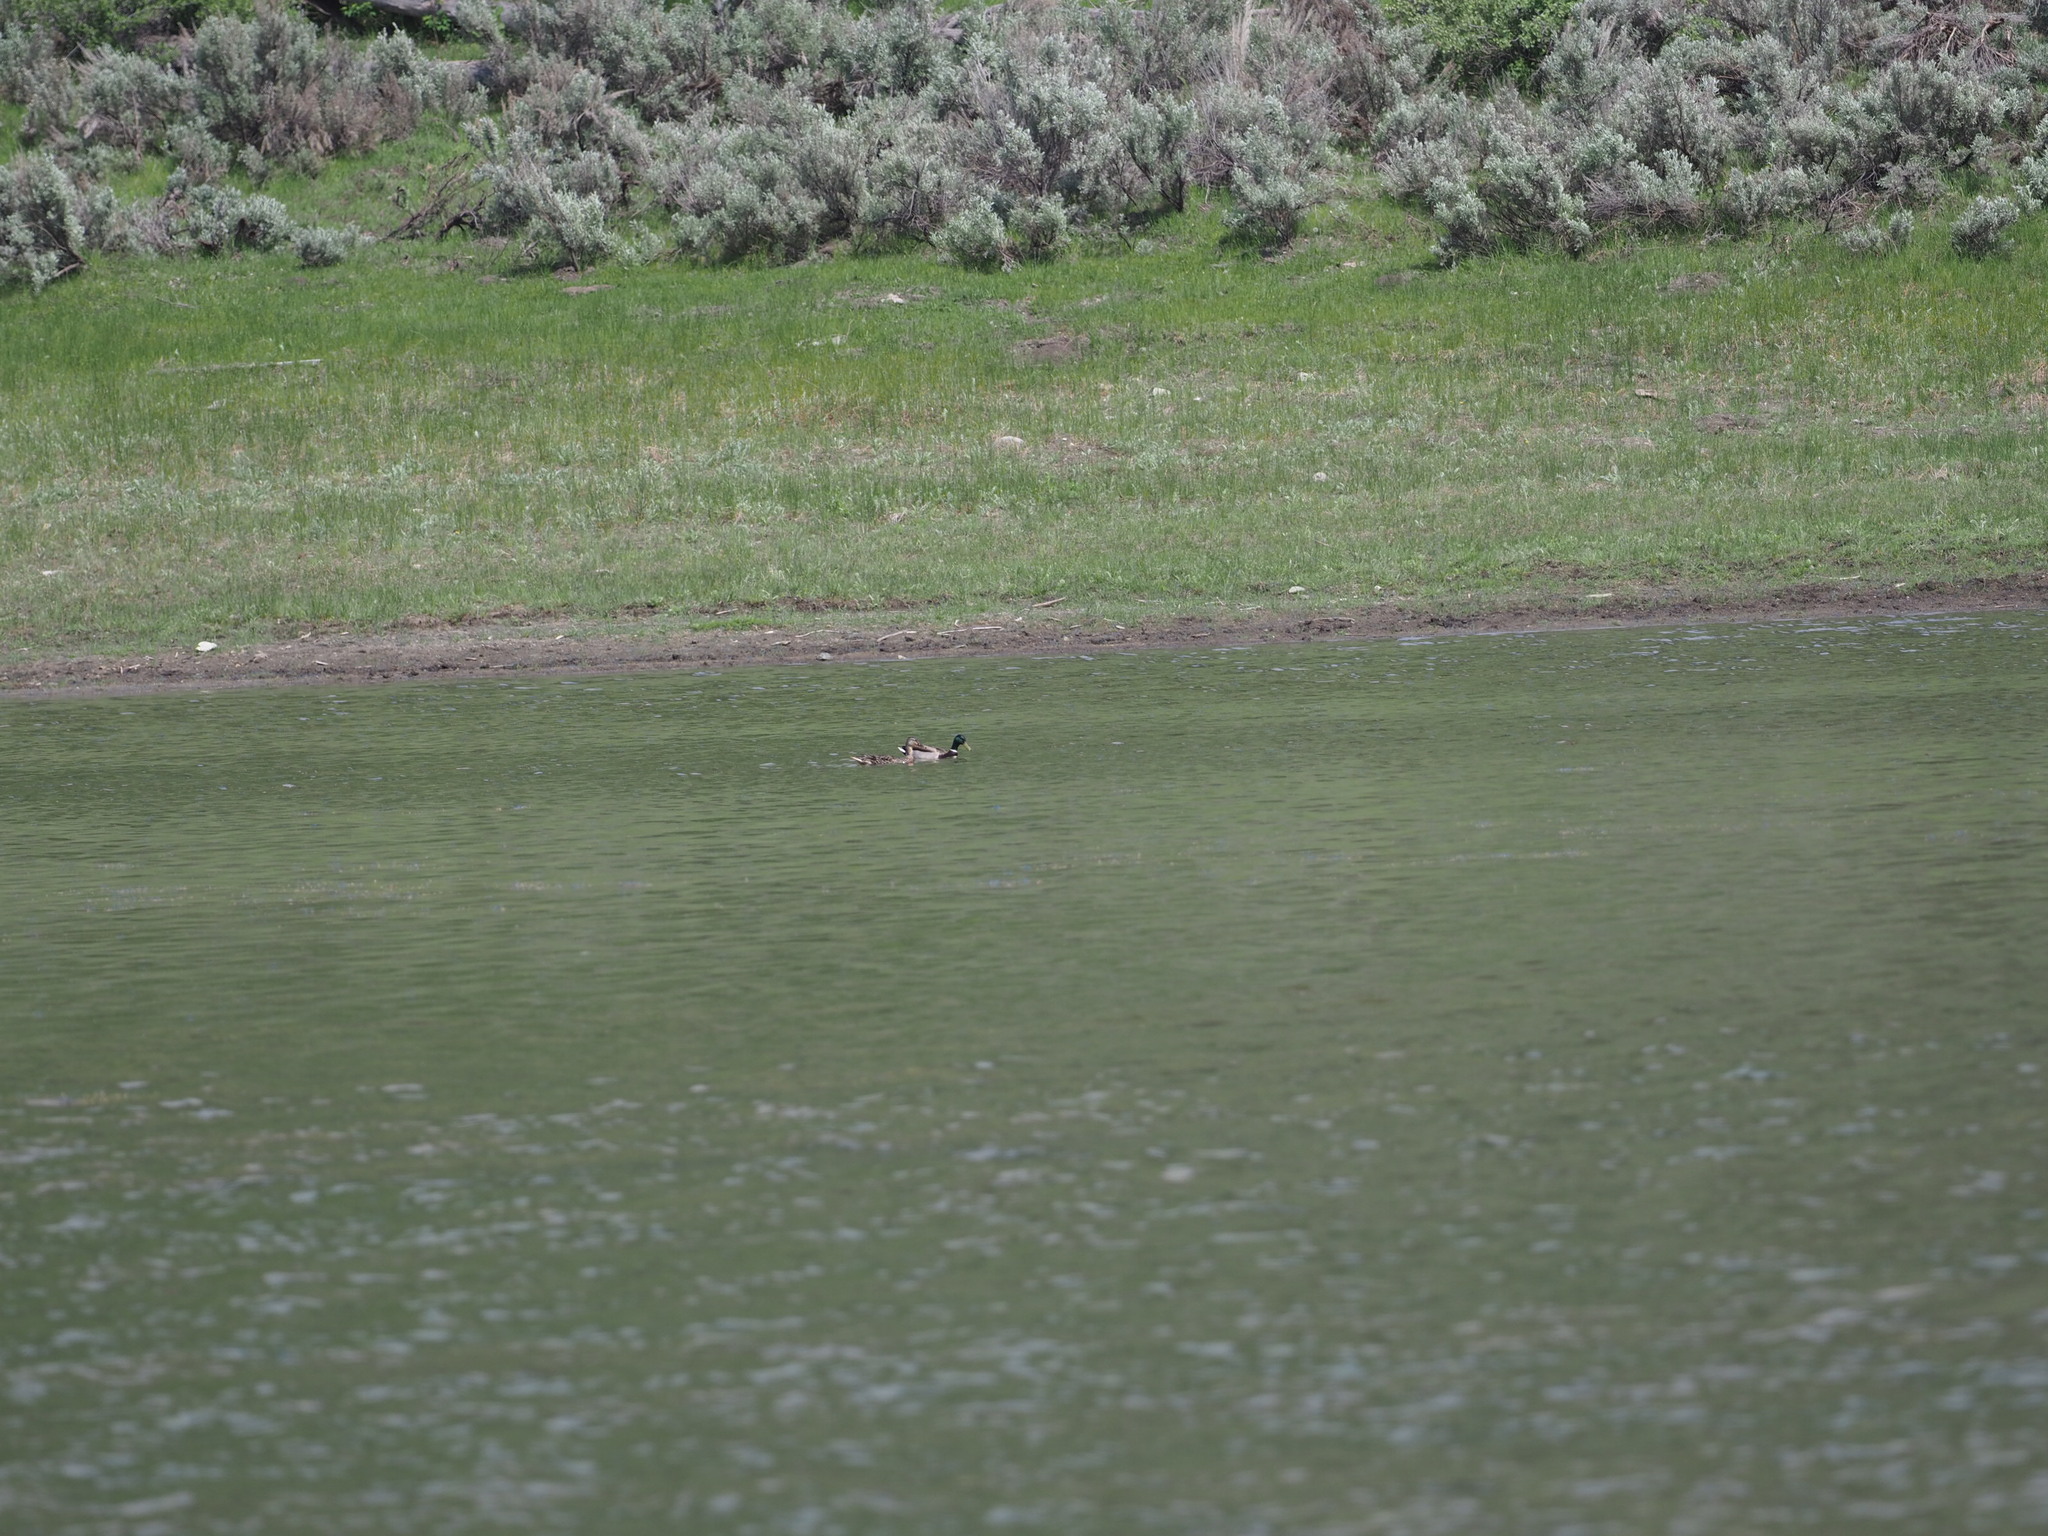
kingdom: Animalia
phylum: Chordata
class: Aves
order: Anseriformes
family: Anatidae
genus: Anas
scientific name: Anas platyrhynchos
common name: Mallard
